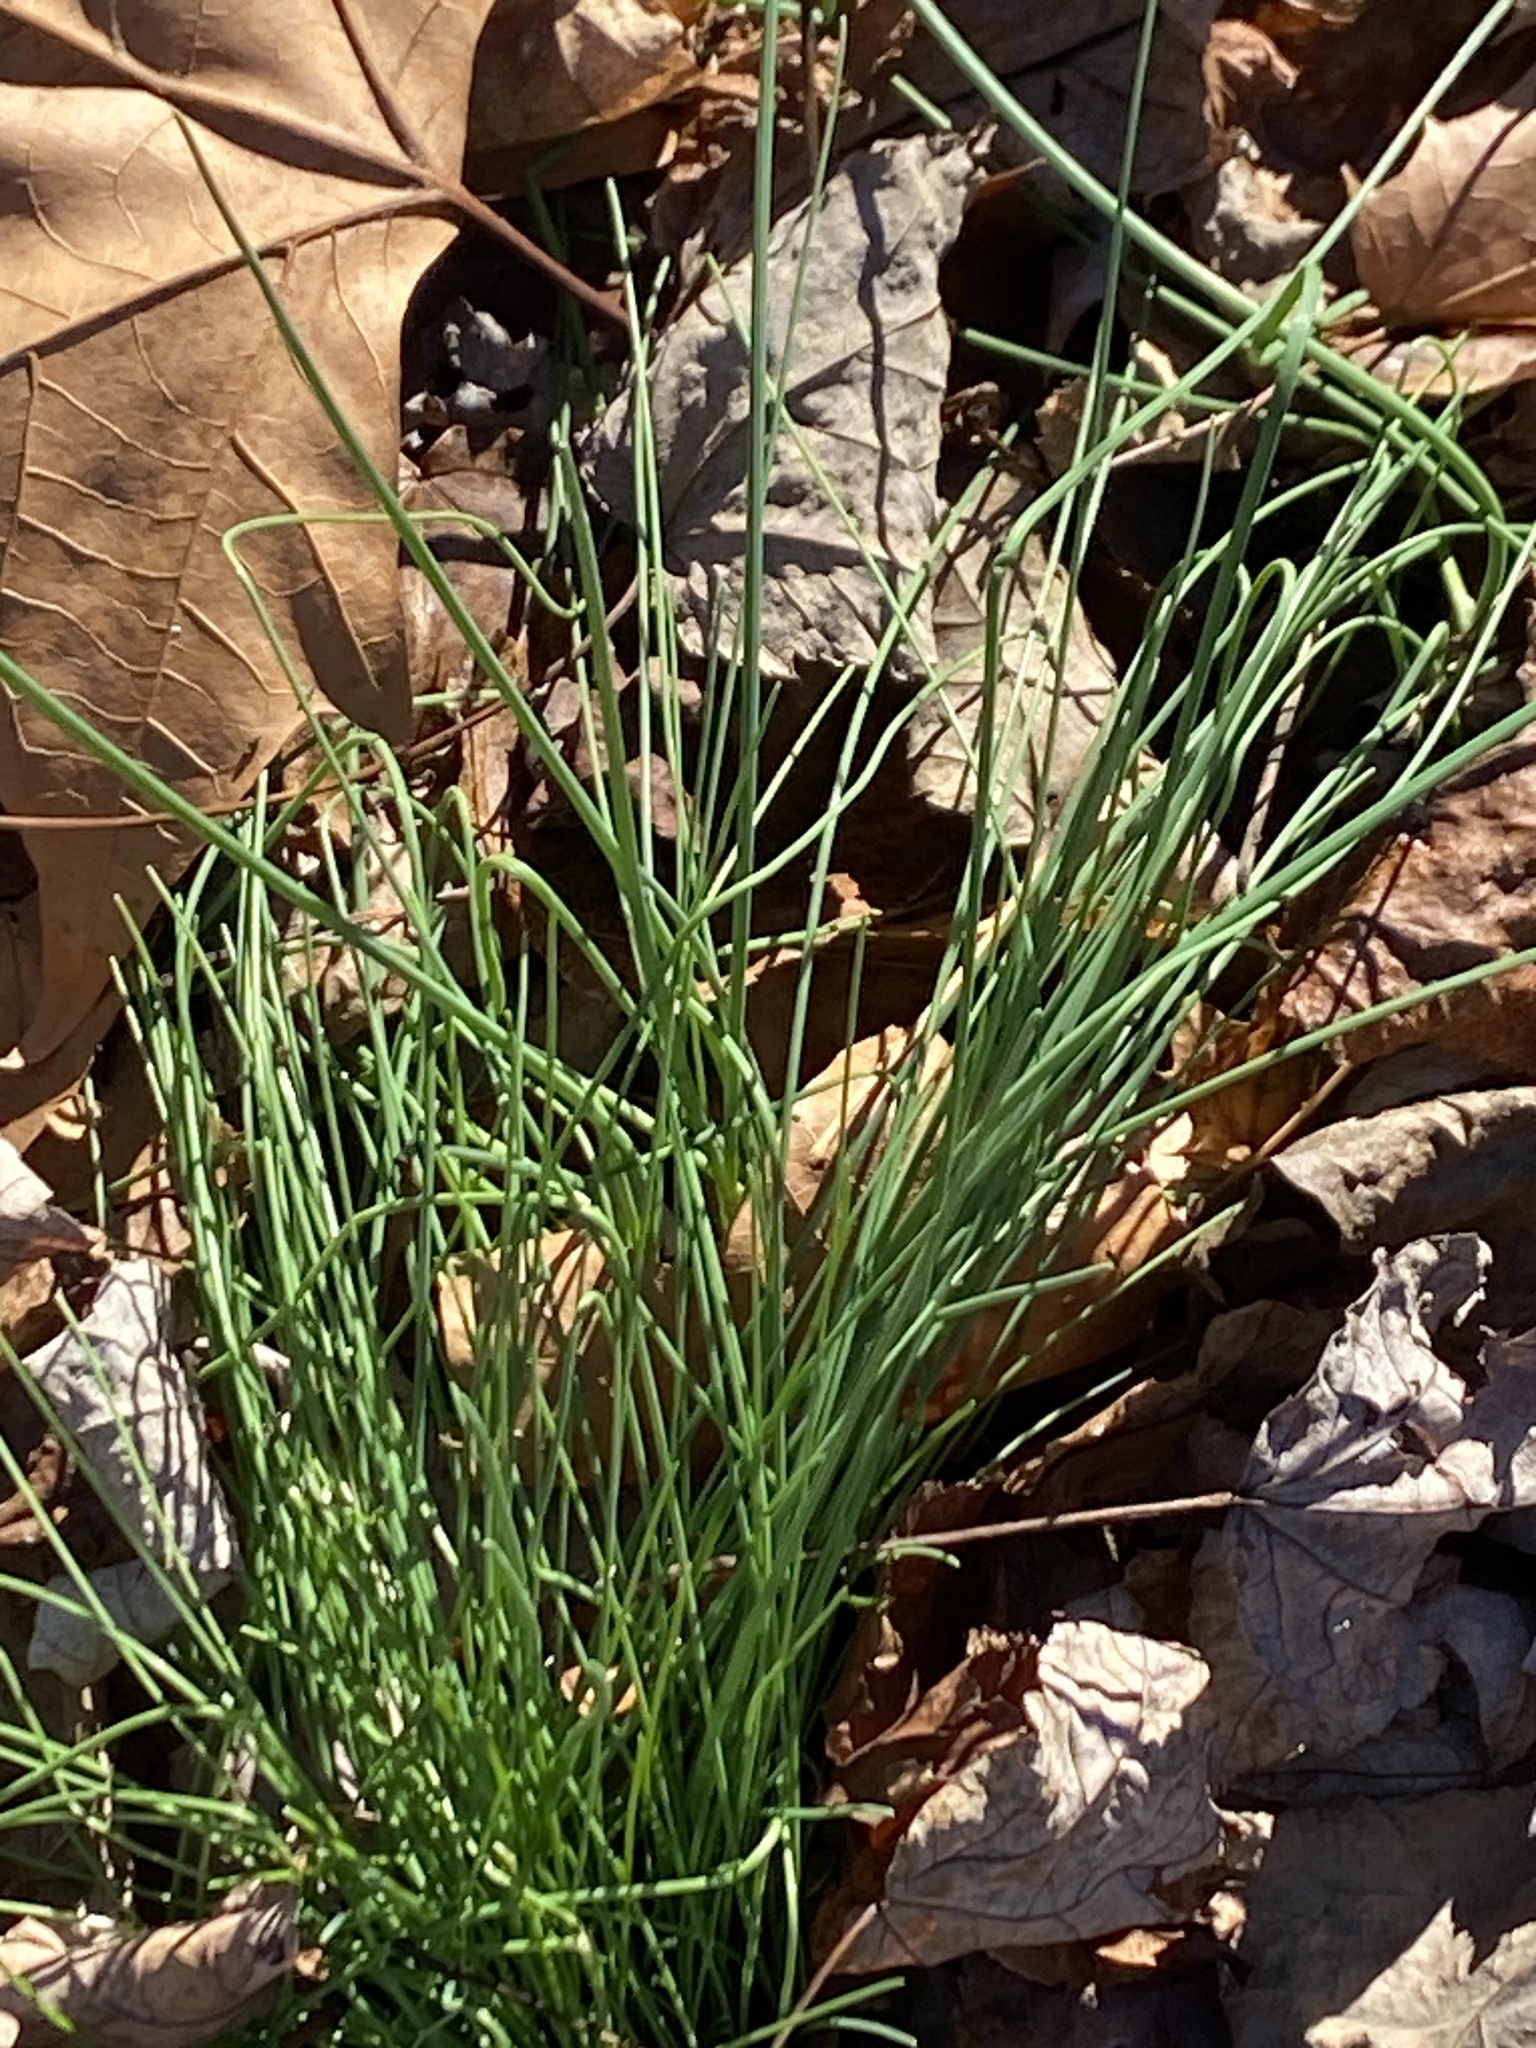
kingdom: Plantae
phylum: Tracheophyta
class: Liliopsida
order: Asparagales
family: Amaryllidaceae
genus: Allium
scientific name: Allium vineale
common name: Crow garlic
